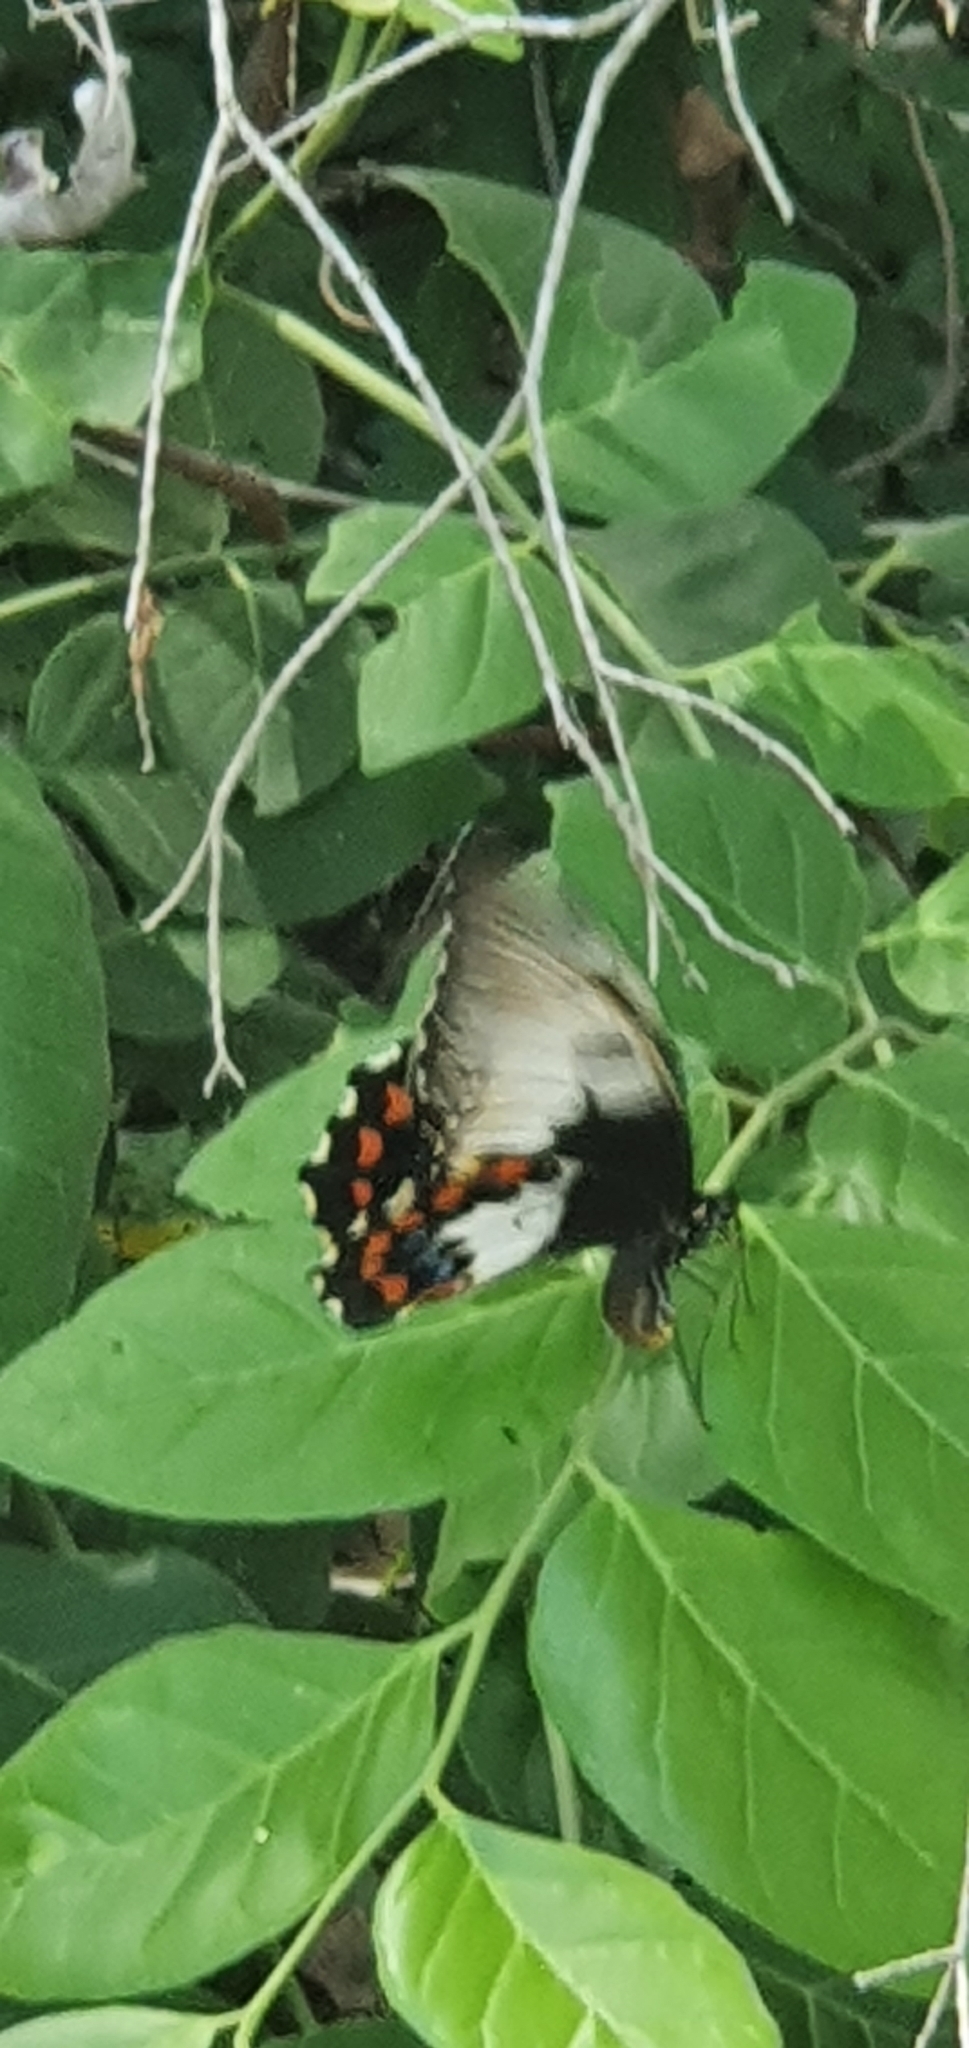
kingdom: Animalia
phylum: Arthropoda
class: Insecta
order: Lepidoptera
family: Papilionidae
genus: Papilio
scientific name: Papilio aegeus
